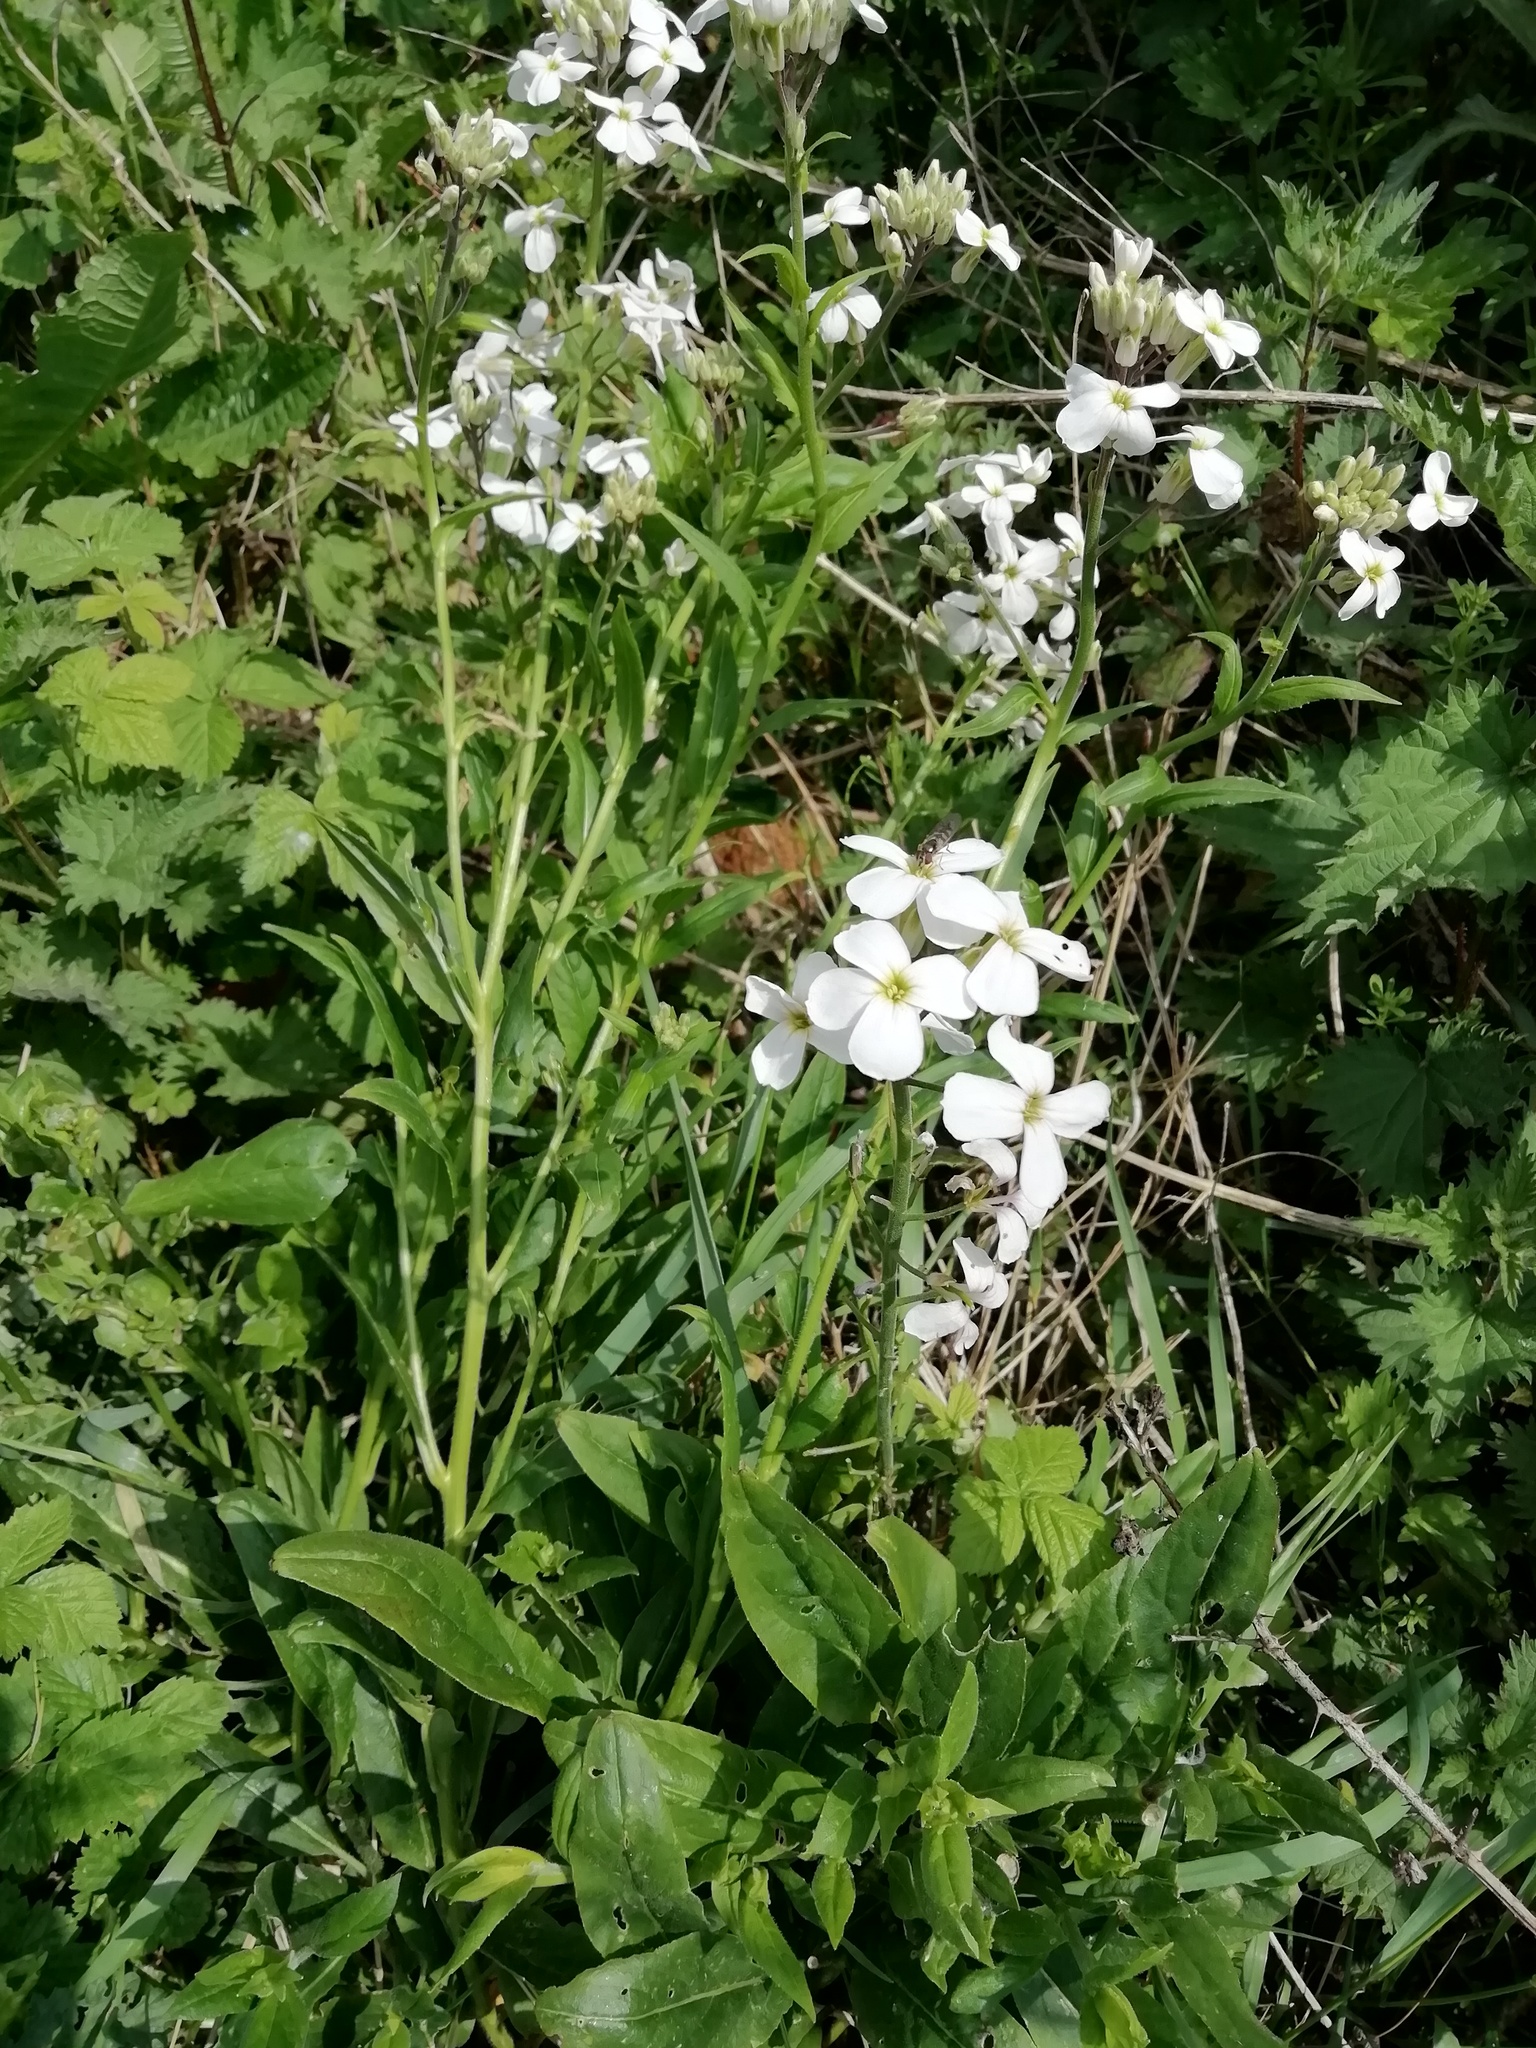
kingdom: Plantae
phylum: Tracheophyta
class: Magnoliopsida
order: Brassicales
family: Brassicaceae
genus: Hesperis
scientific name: Hesperis matronalis
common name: Dame's-violet
